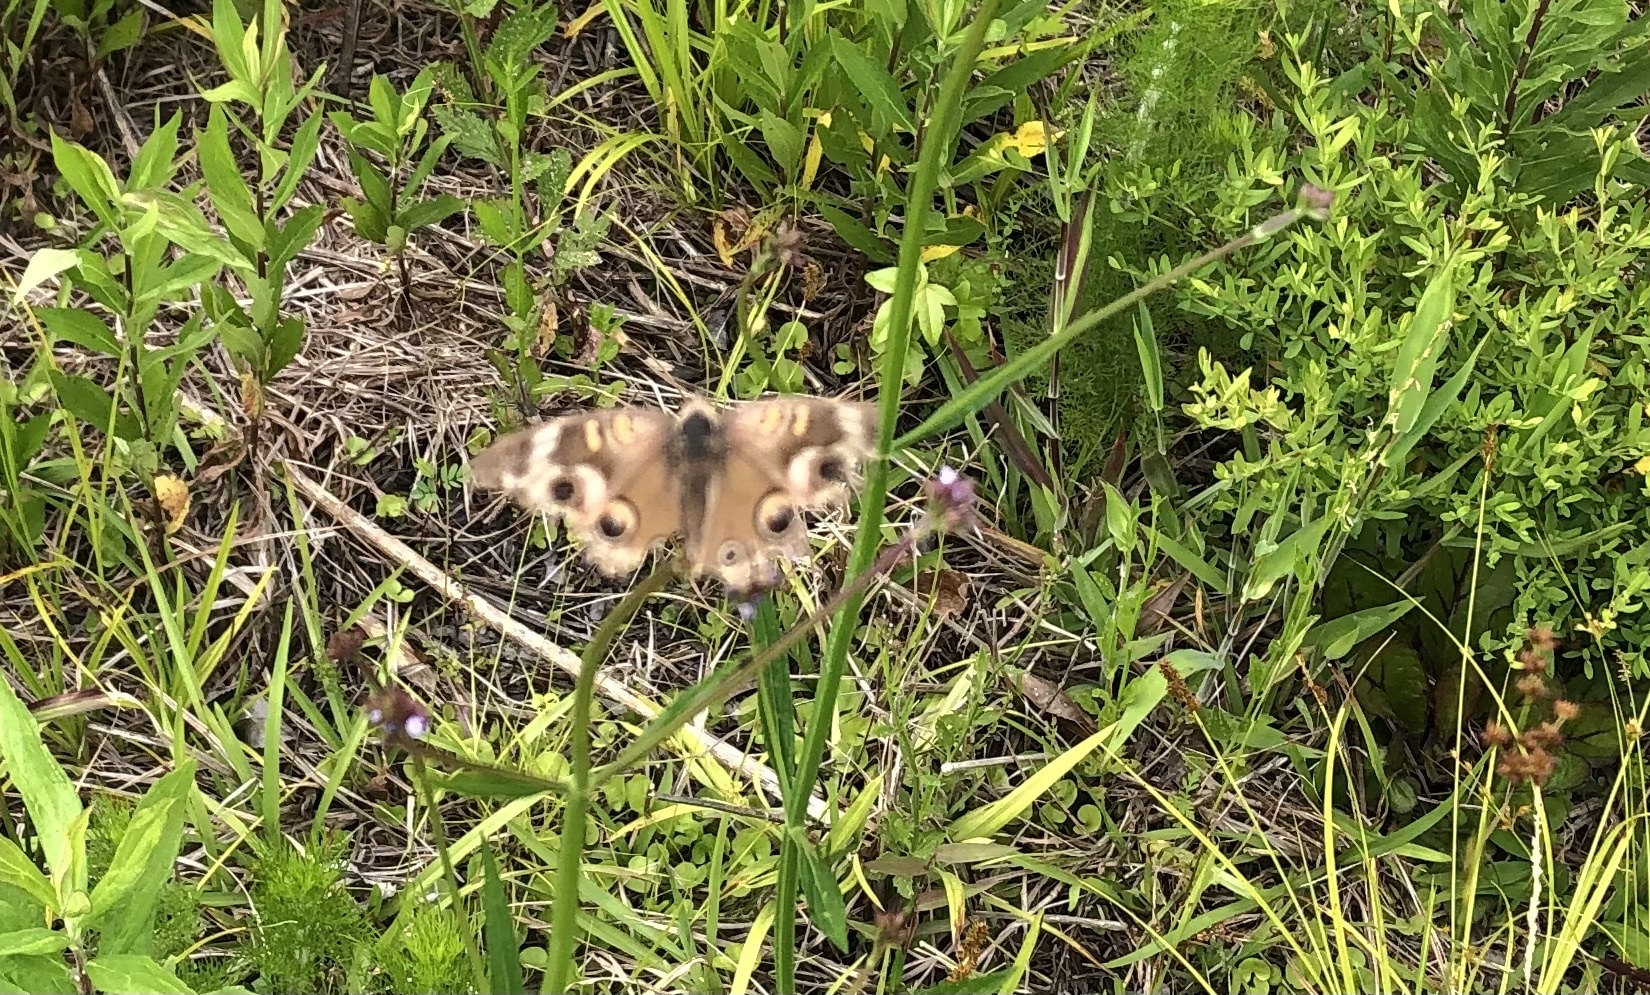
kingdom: Animalia
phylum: Arthropoda
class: Insecta
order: Lepidoptera
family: Nymphalidae
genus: Junonia
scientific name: Junonia coenia
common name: Common buckeye
